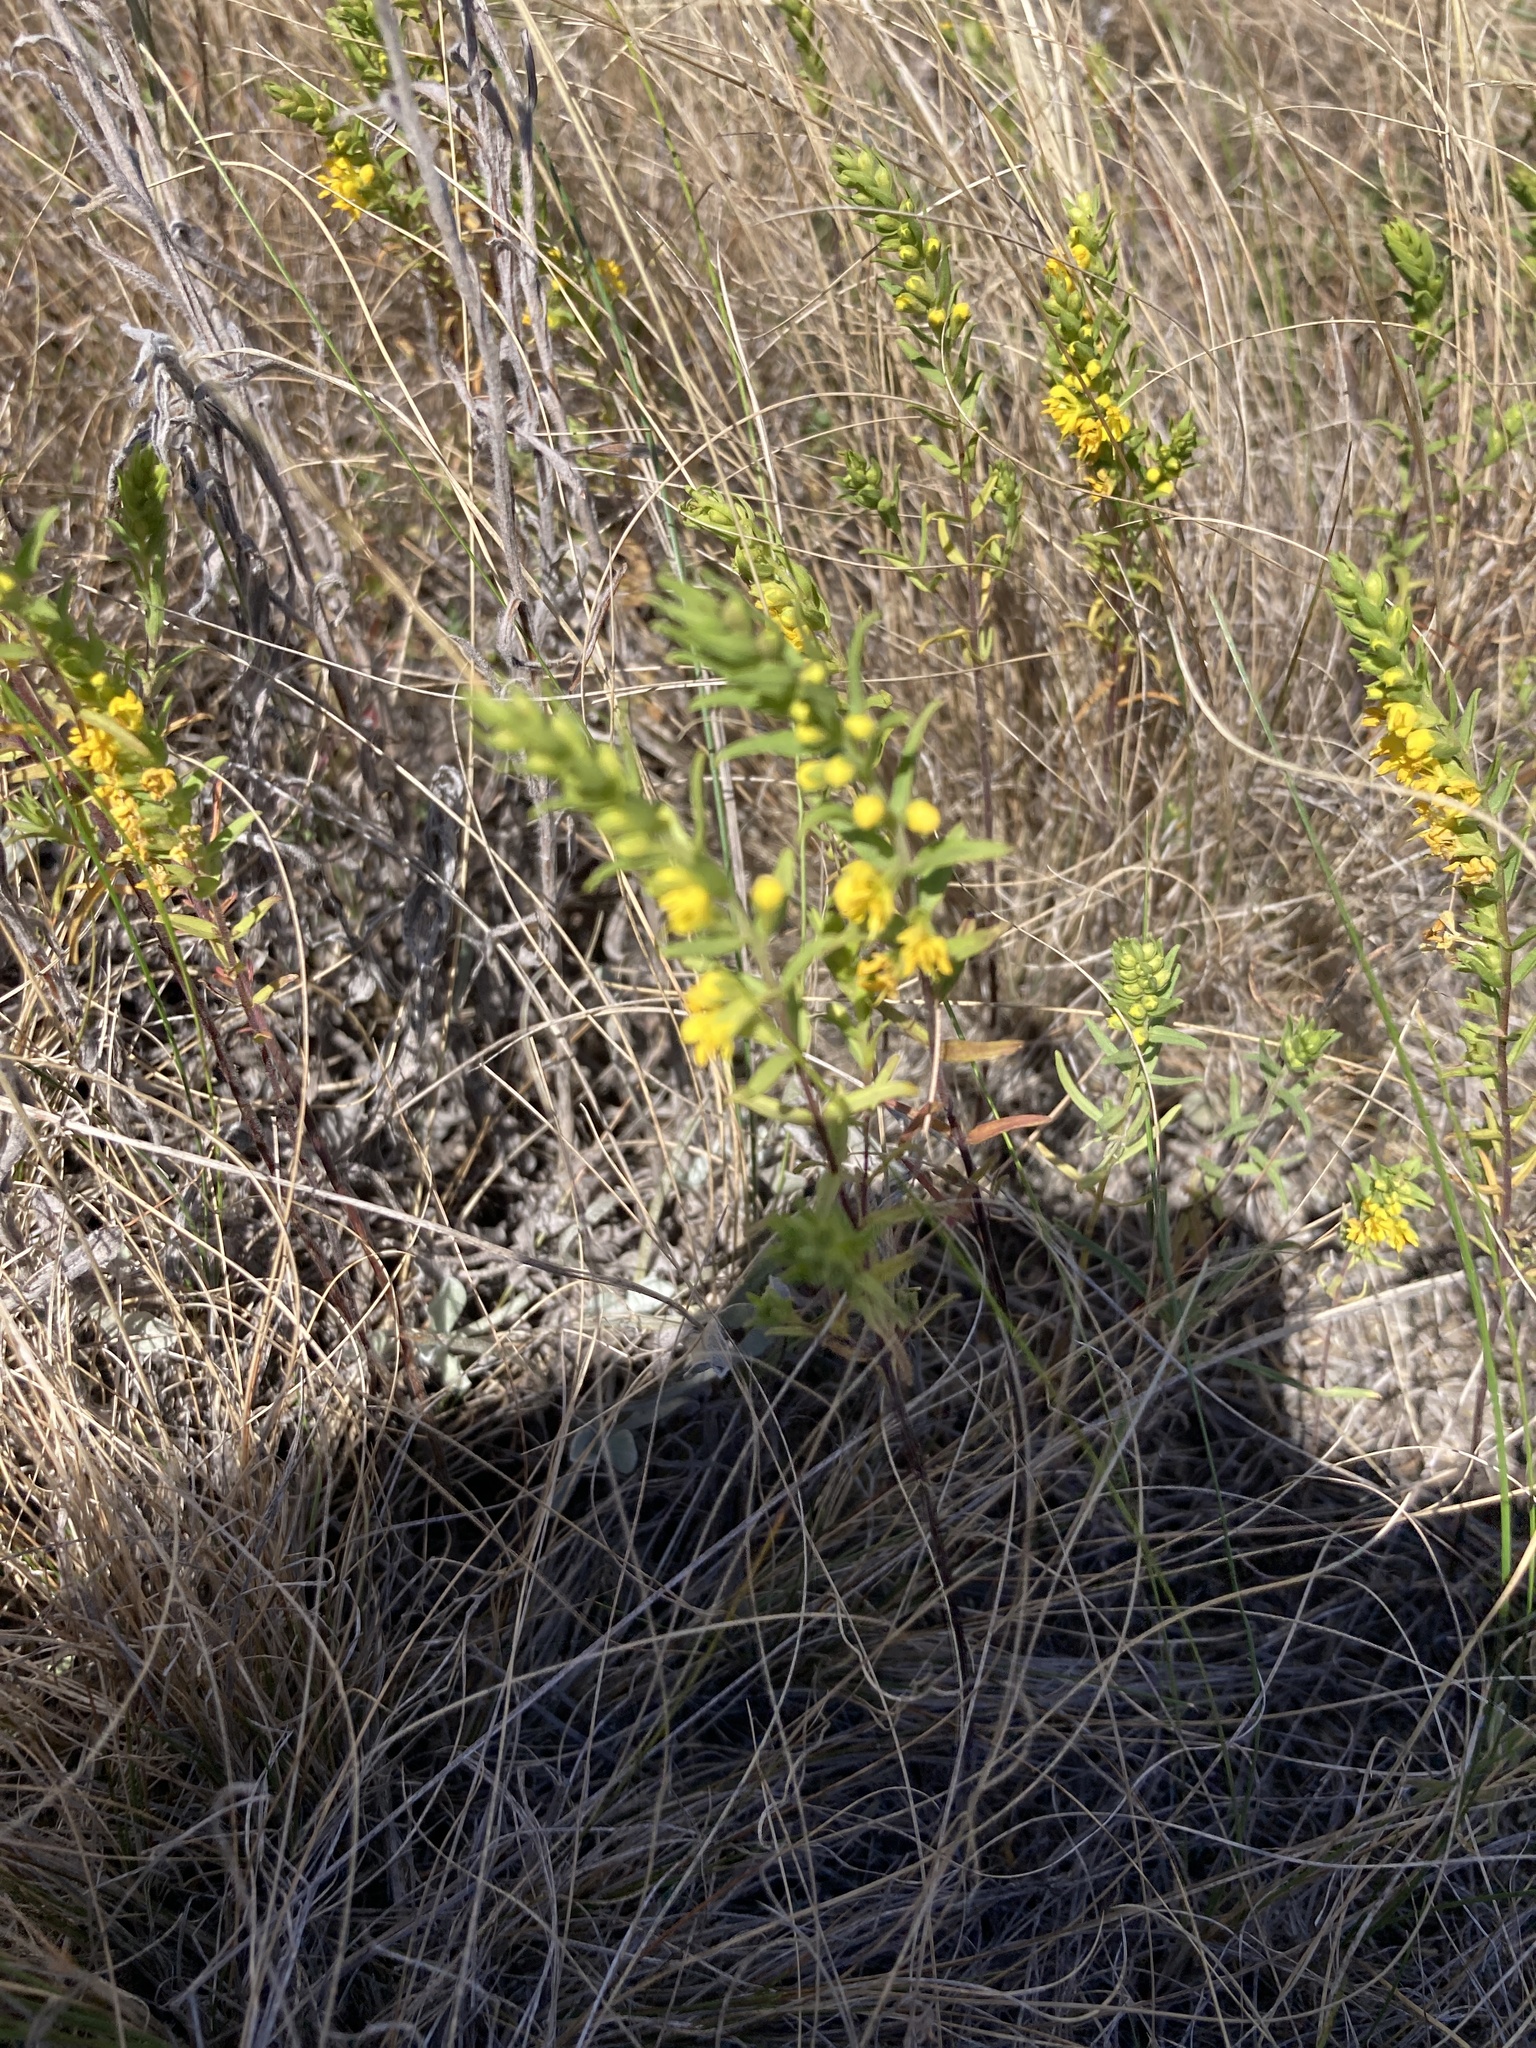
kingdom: Plantae
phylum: Tracheophyta
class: Magnoliopsida
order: Lamiales
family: Orobanchaceae
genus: Odontites
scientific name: Odontites luteus
